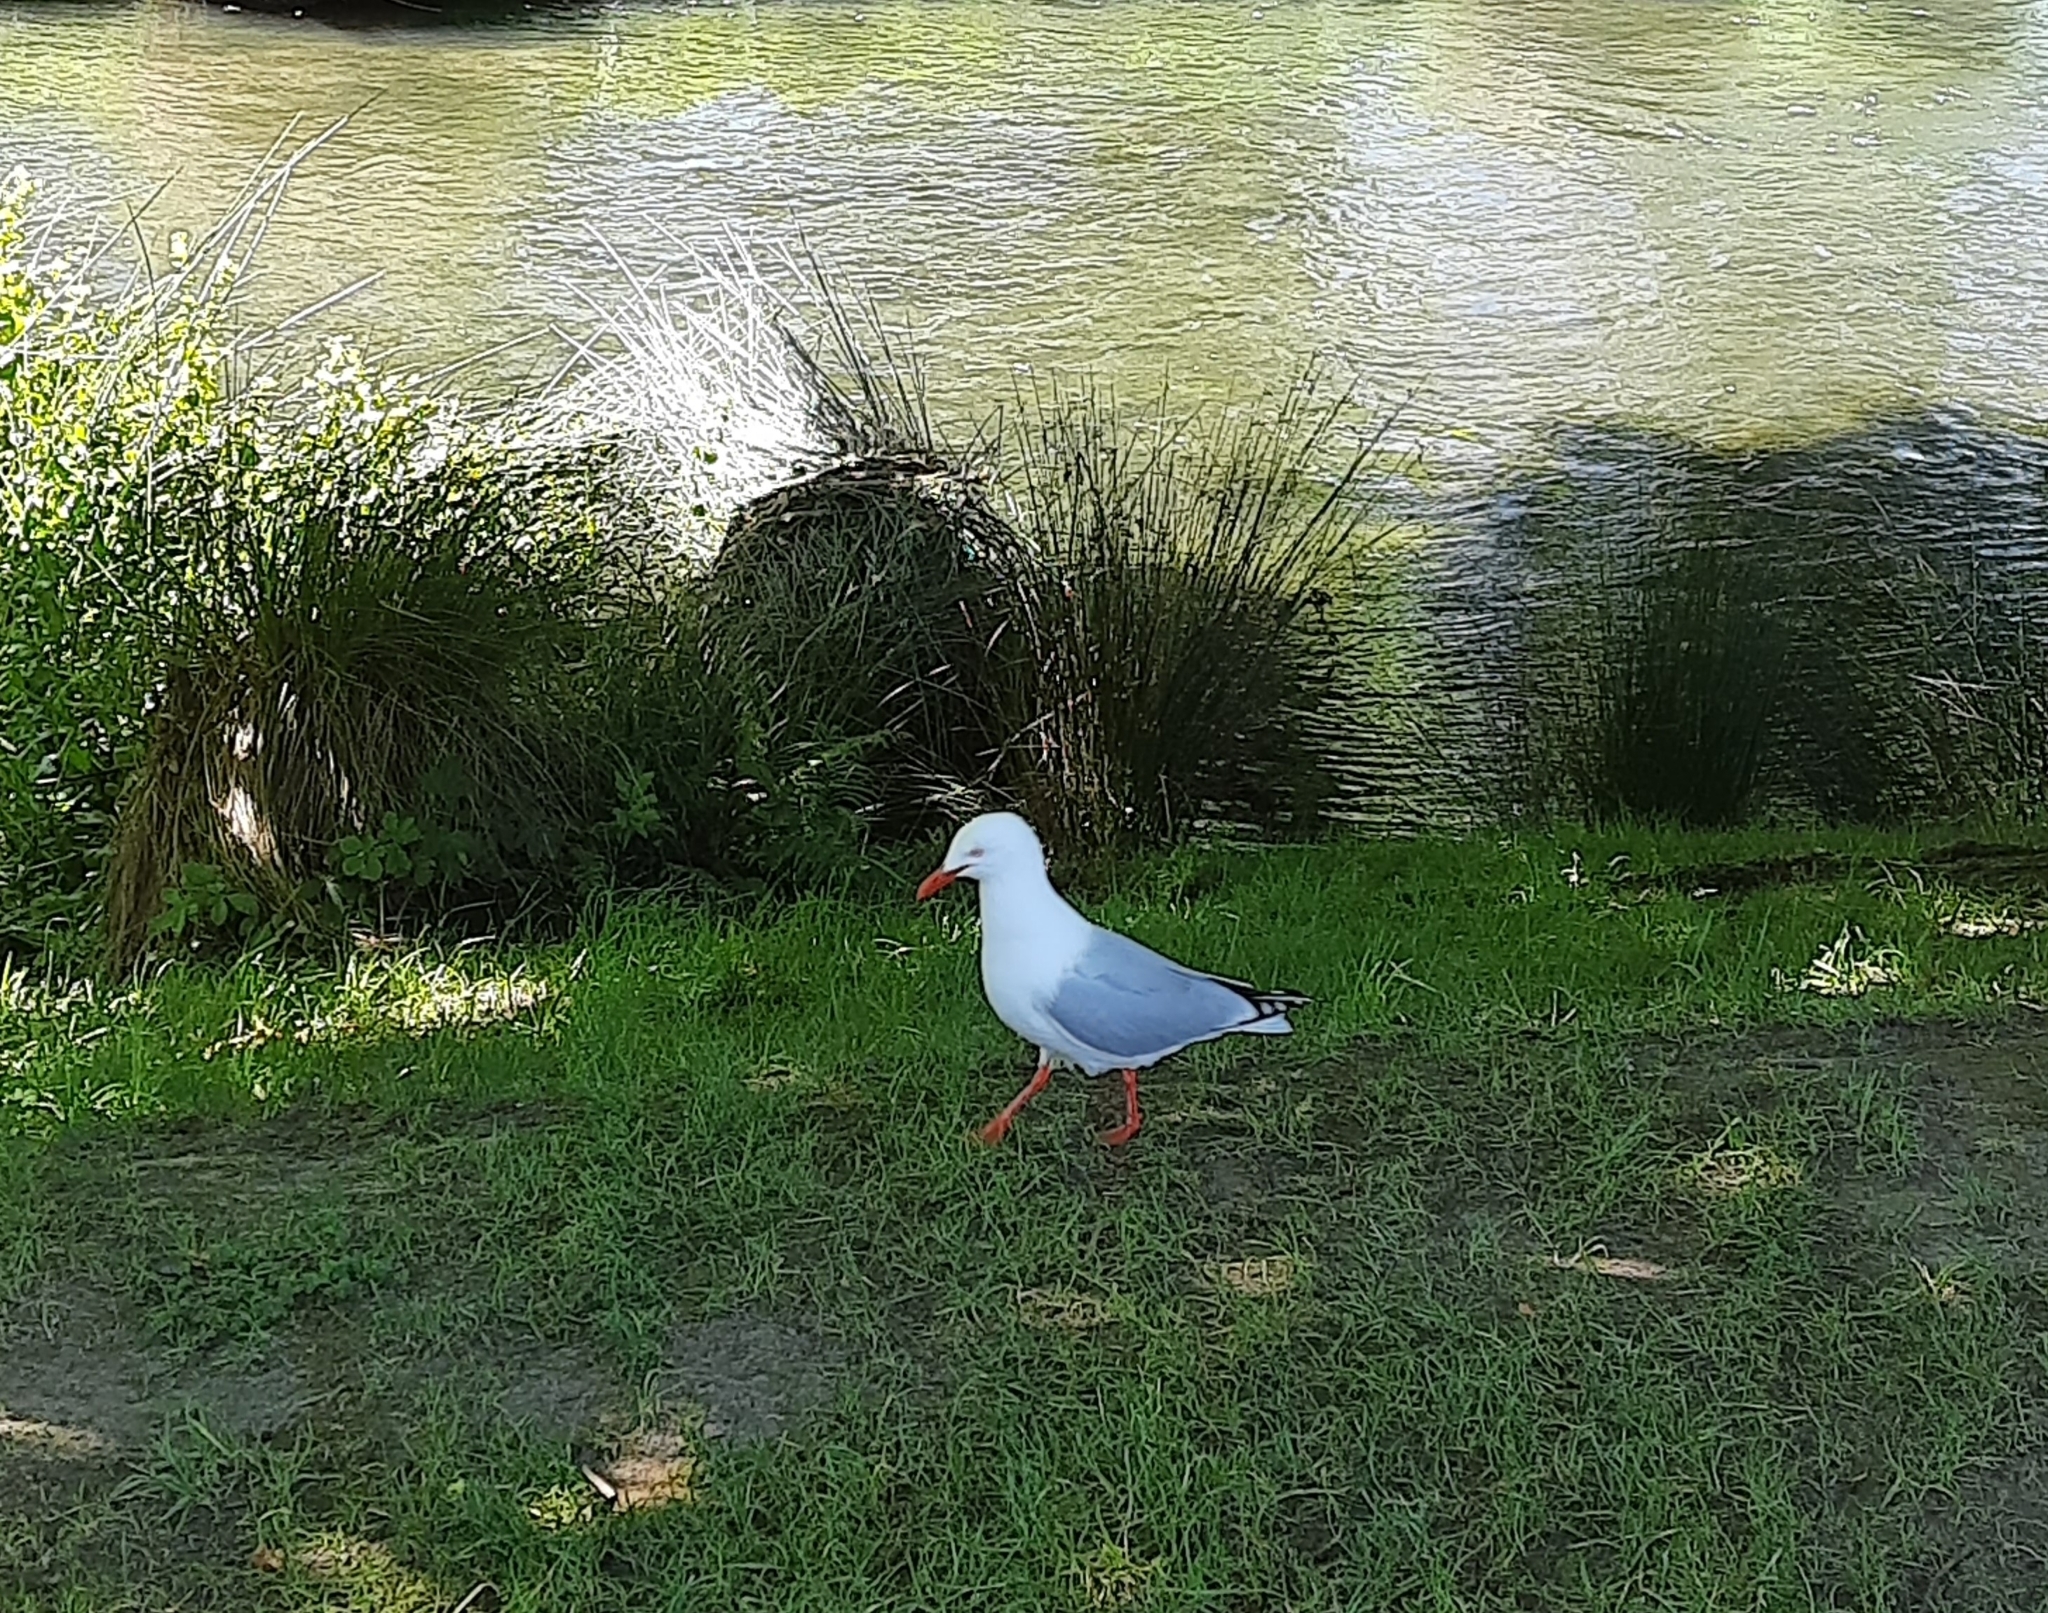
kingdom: Animalia
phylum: Chordata
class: Aves
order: Charadriiformes
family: Laridae
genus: Chroicocephalus
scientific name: Chroicocephalus novaehollandiae
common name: Silver gull
